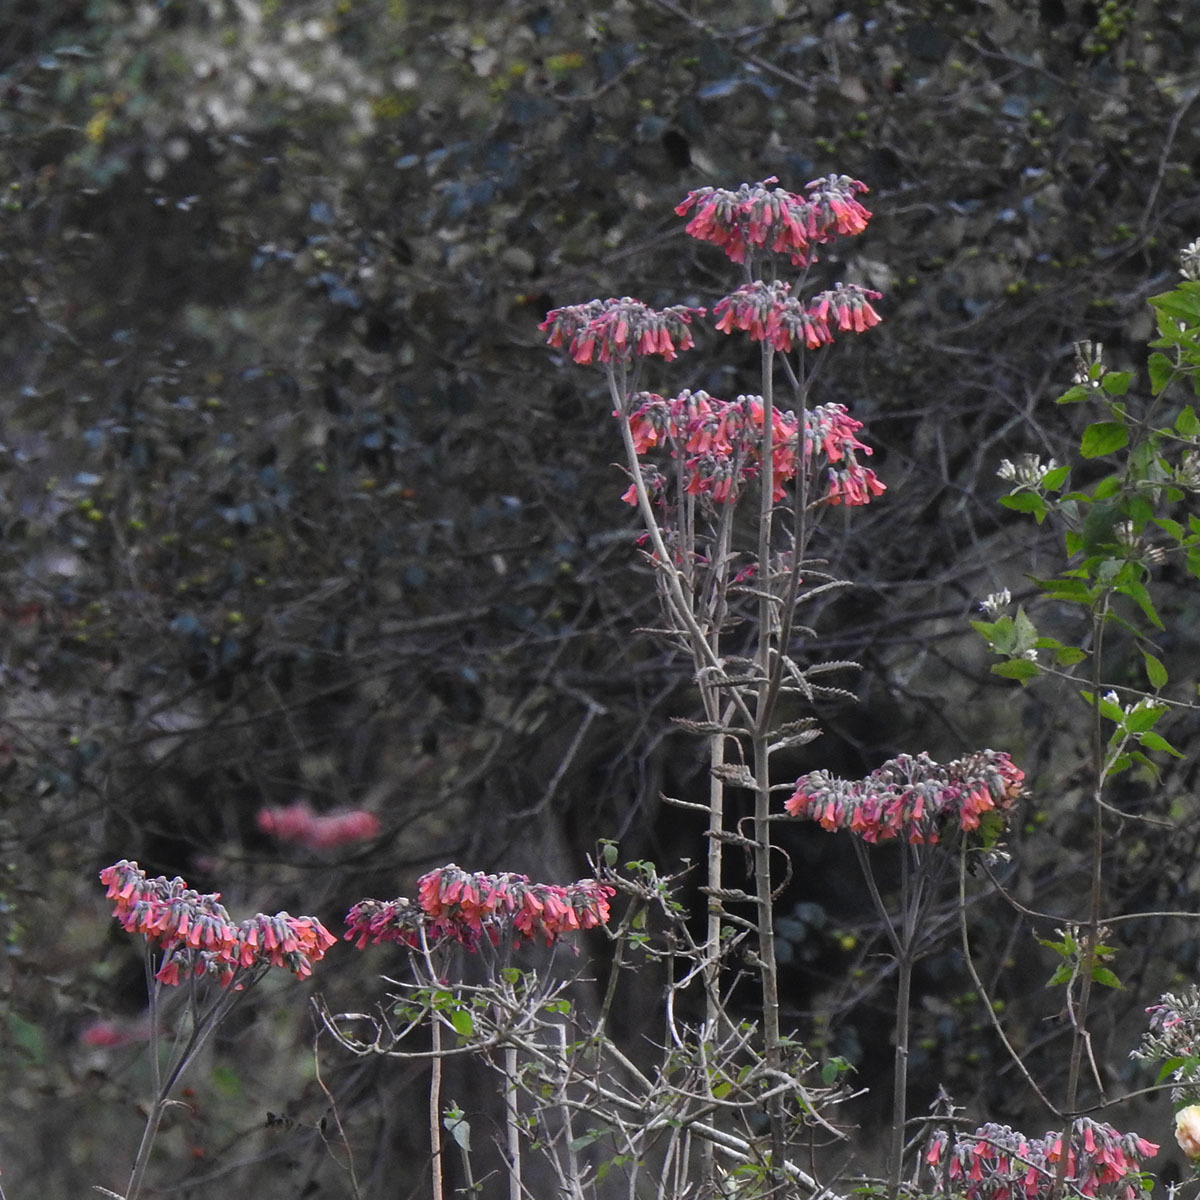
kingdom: Plantae
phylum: Tracheophyta
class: Magnoliopsida
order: Saxifragales
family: Crassulaceae
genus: Kalanchoe
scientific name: Kalanchoe houghtonii
